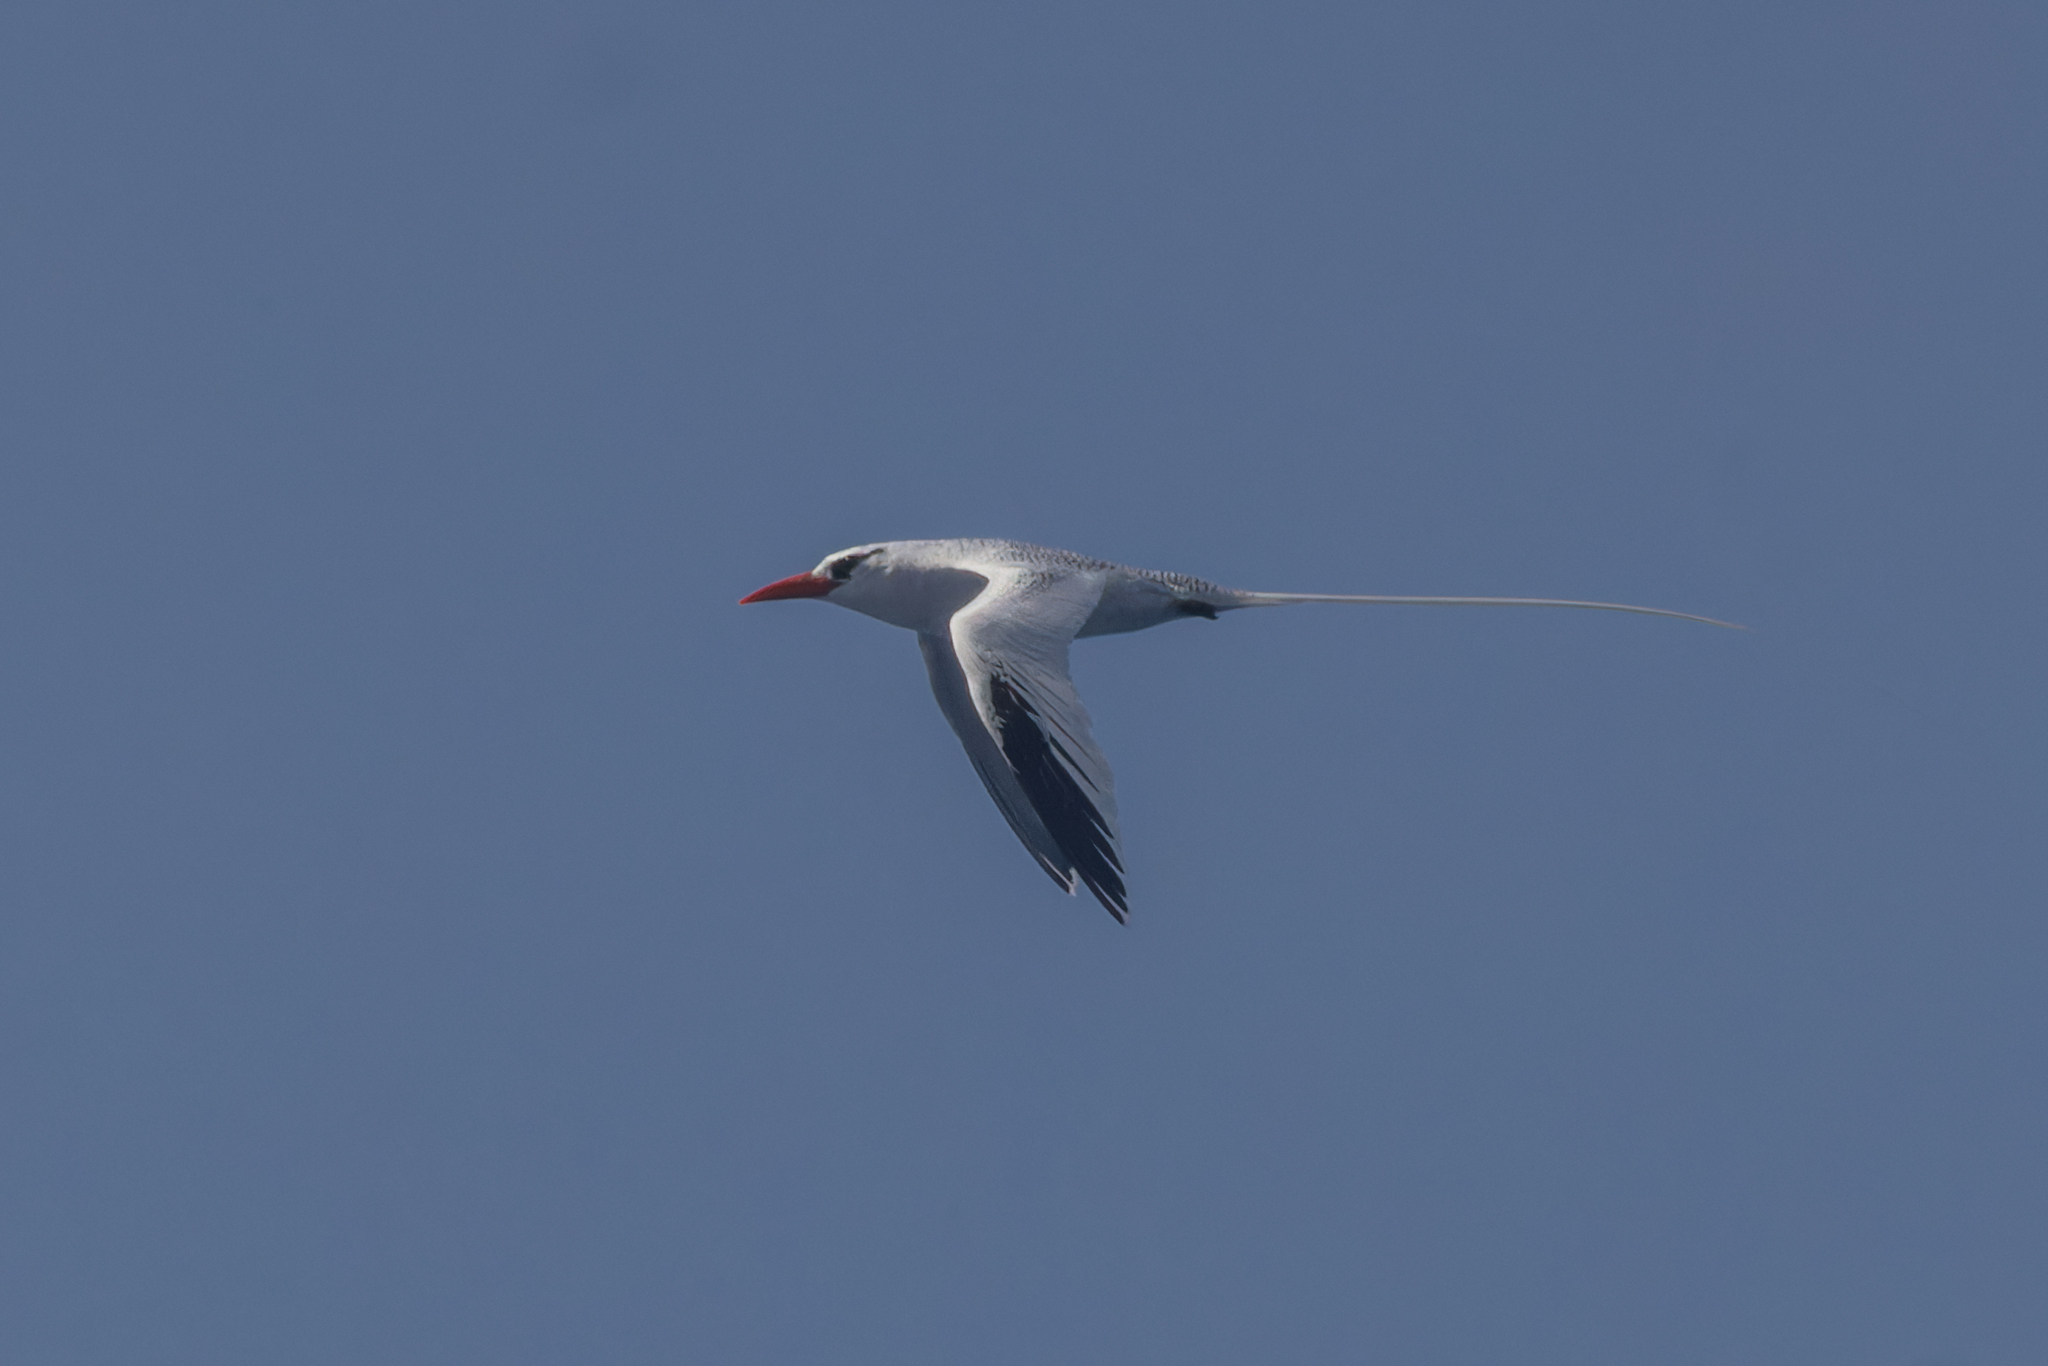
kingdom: Animalia
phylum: Chordata
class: Aves
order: Phaethontiformes
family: Phaethontidae
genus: Phaethon
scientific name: Phaethon aethereus
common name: Red-billed tropicbird
